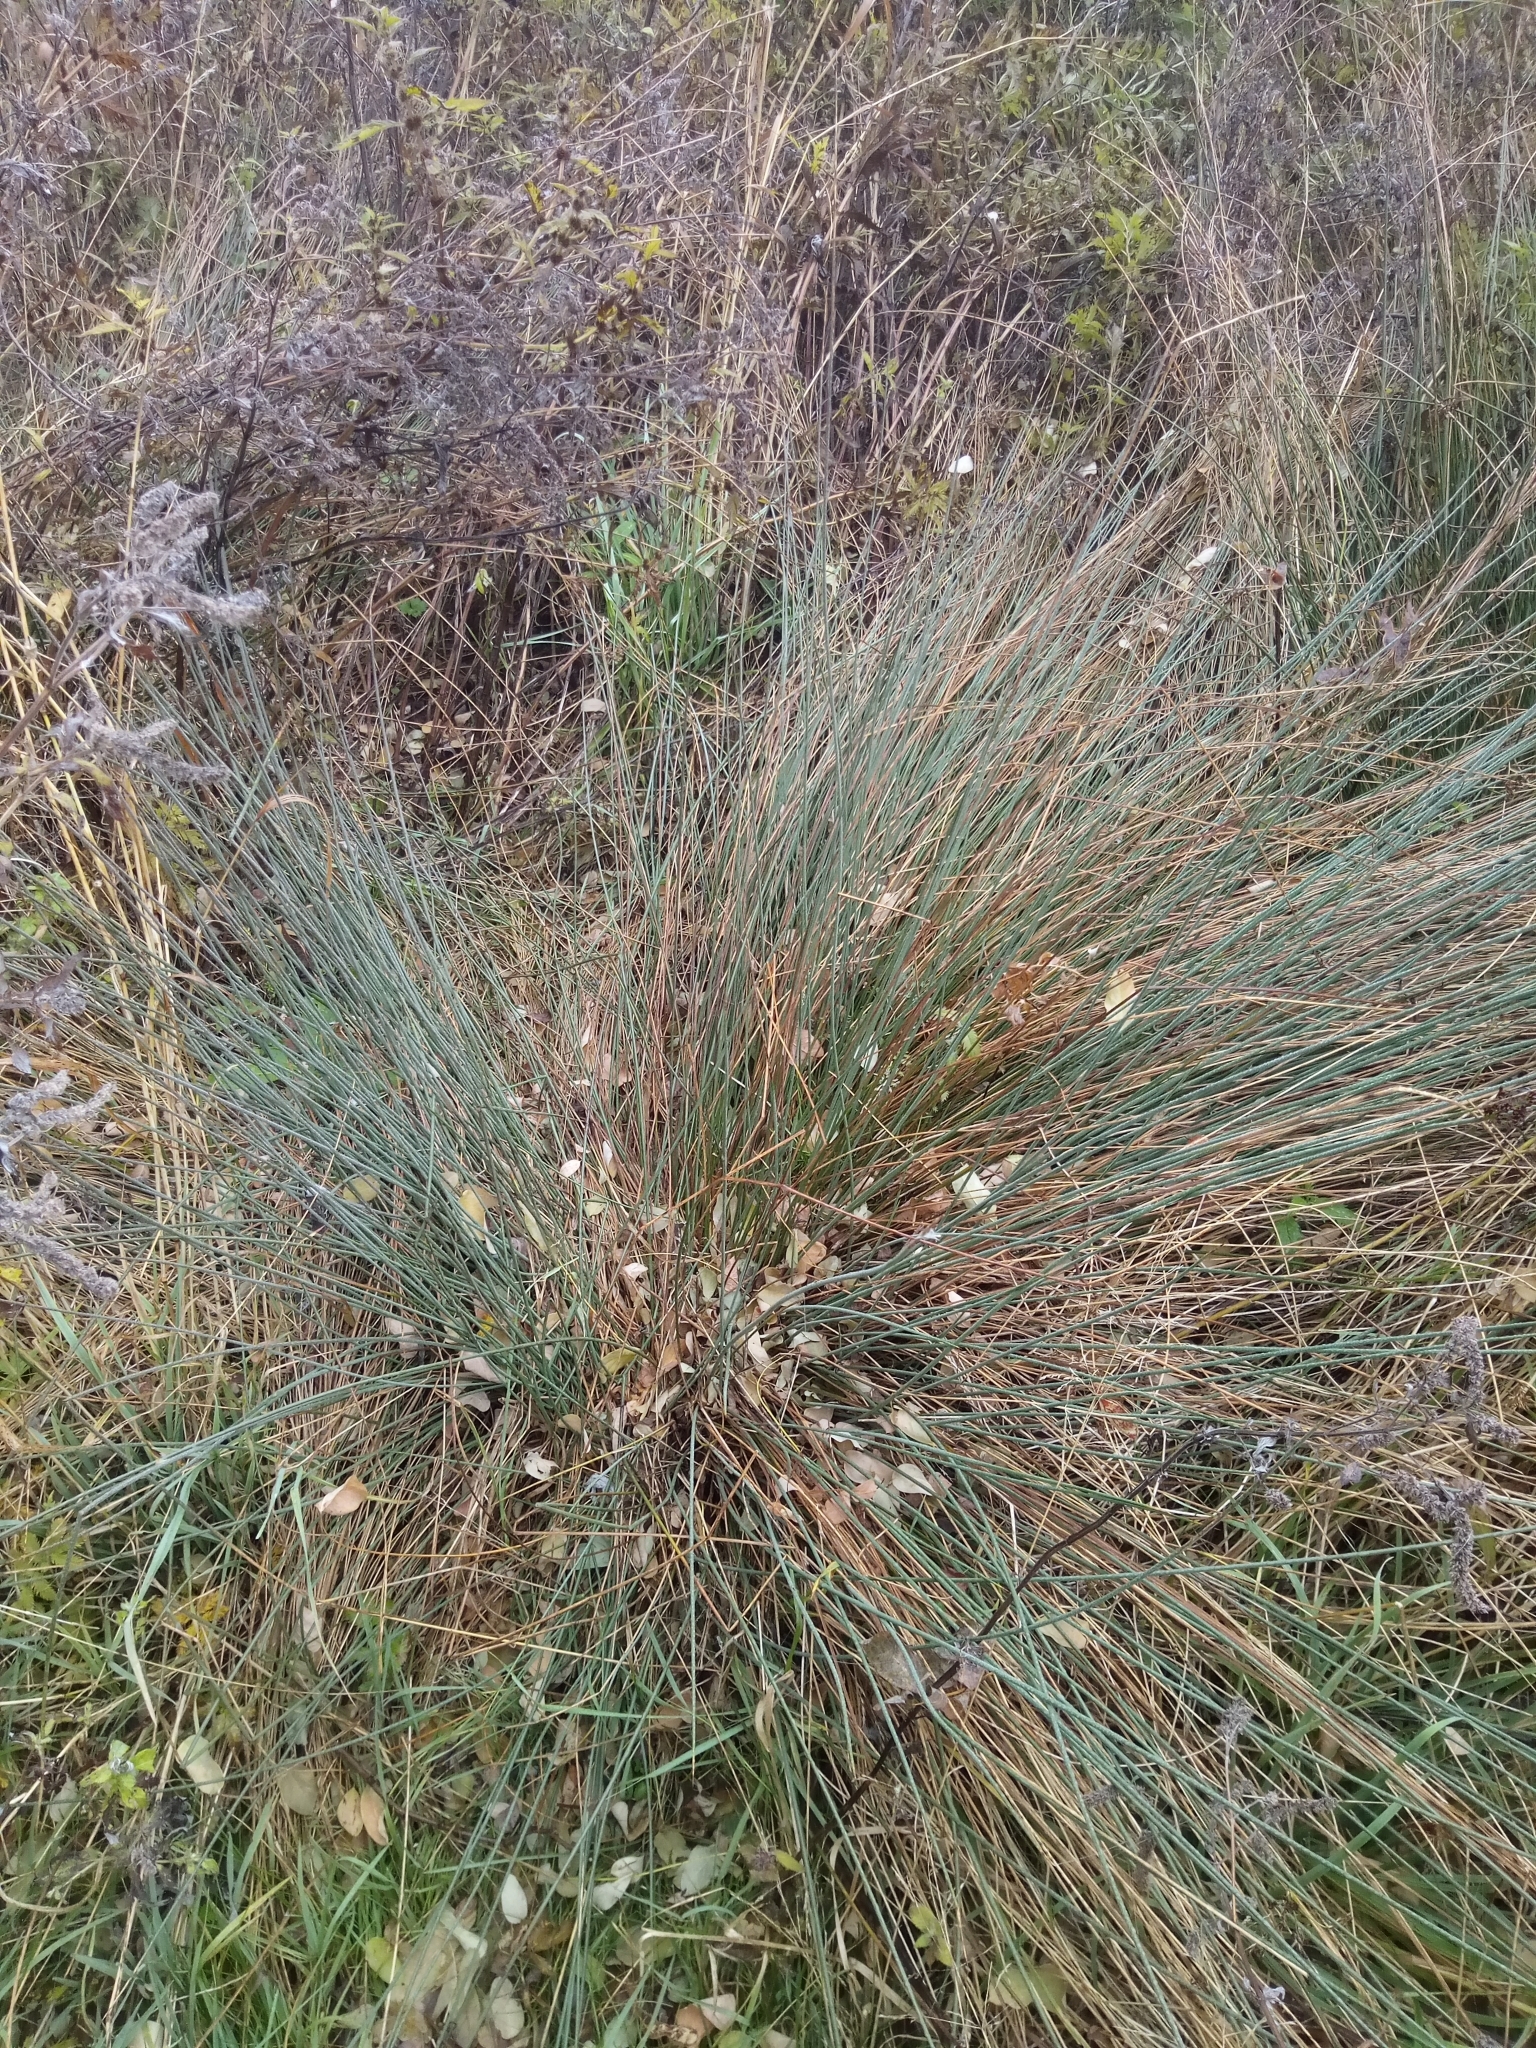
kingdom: Plantae
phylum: Tracheophyta
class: Liliopsida
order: Poales
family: Juncaceae
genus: Juncus
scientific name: Juncus inflexus
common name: Hard rush
